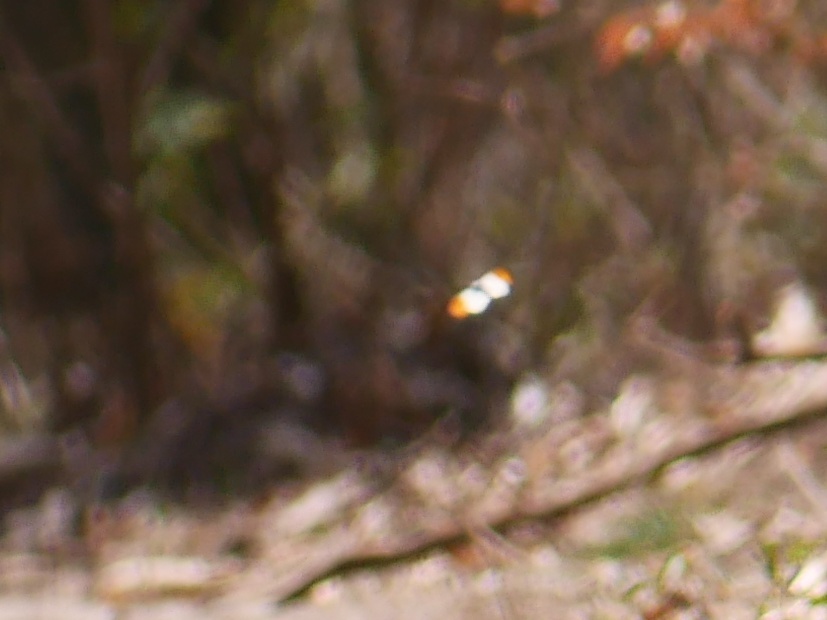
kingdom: Animalia
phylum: Arthropoda
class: Insecta
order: Lepidoptera
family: Pieridae
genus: Anthocharis
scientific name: Anthocharis cardamines
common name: Orange-tip
